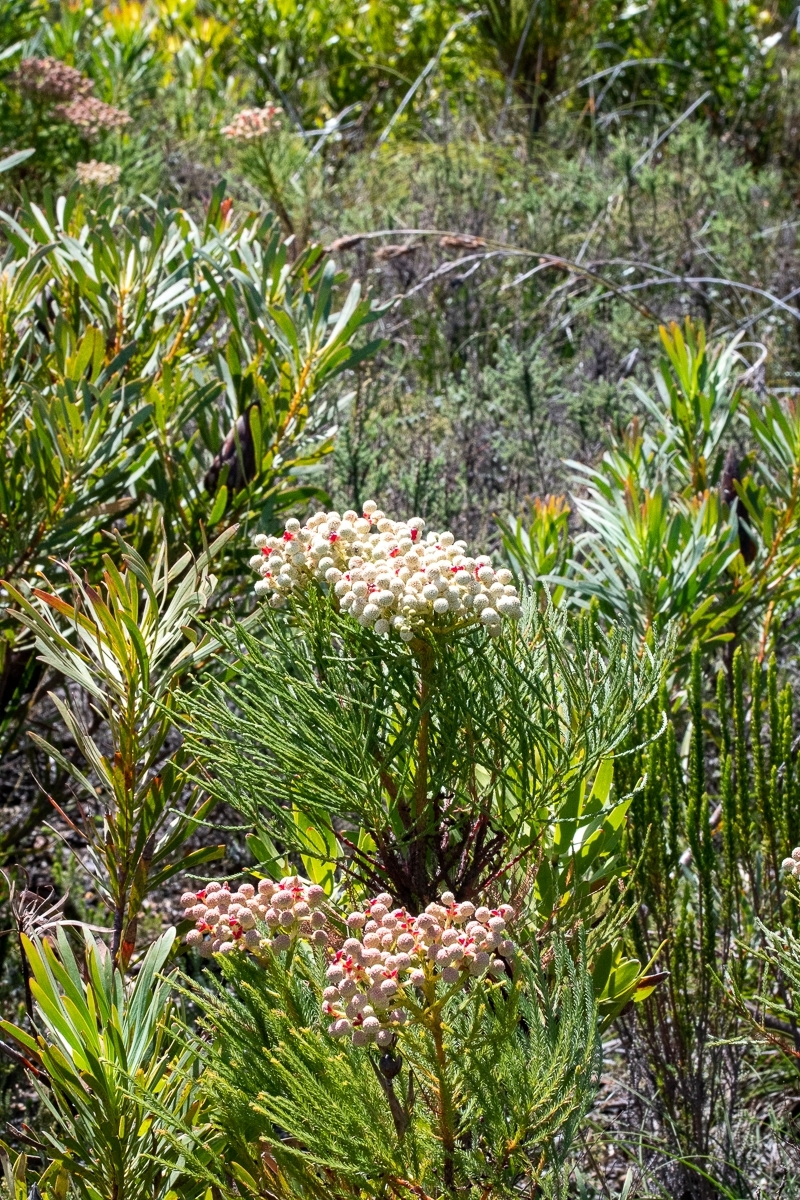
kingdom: Plantae
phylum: Tracheophyta
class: Magnoliopsida
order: Bruniales
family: Bruniaceae
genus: Berzelia
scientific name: Berzelia lanuginosa
